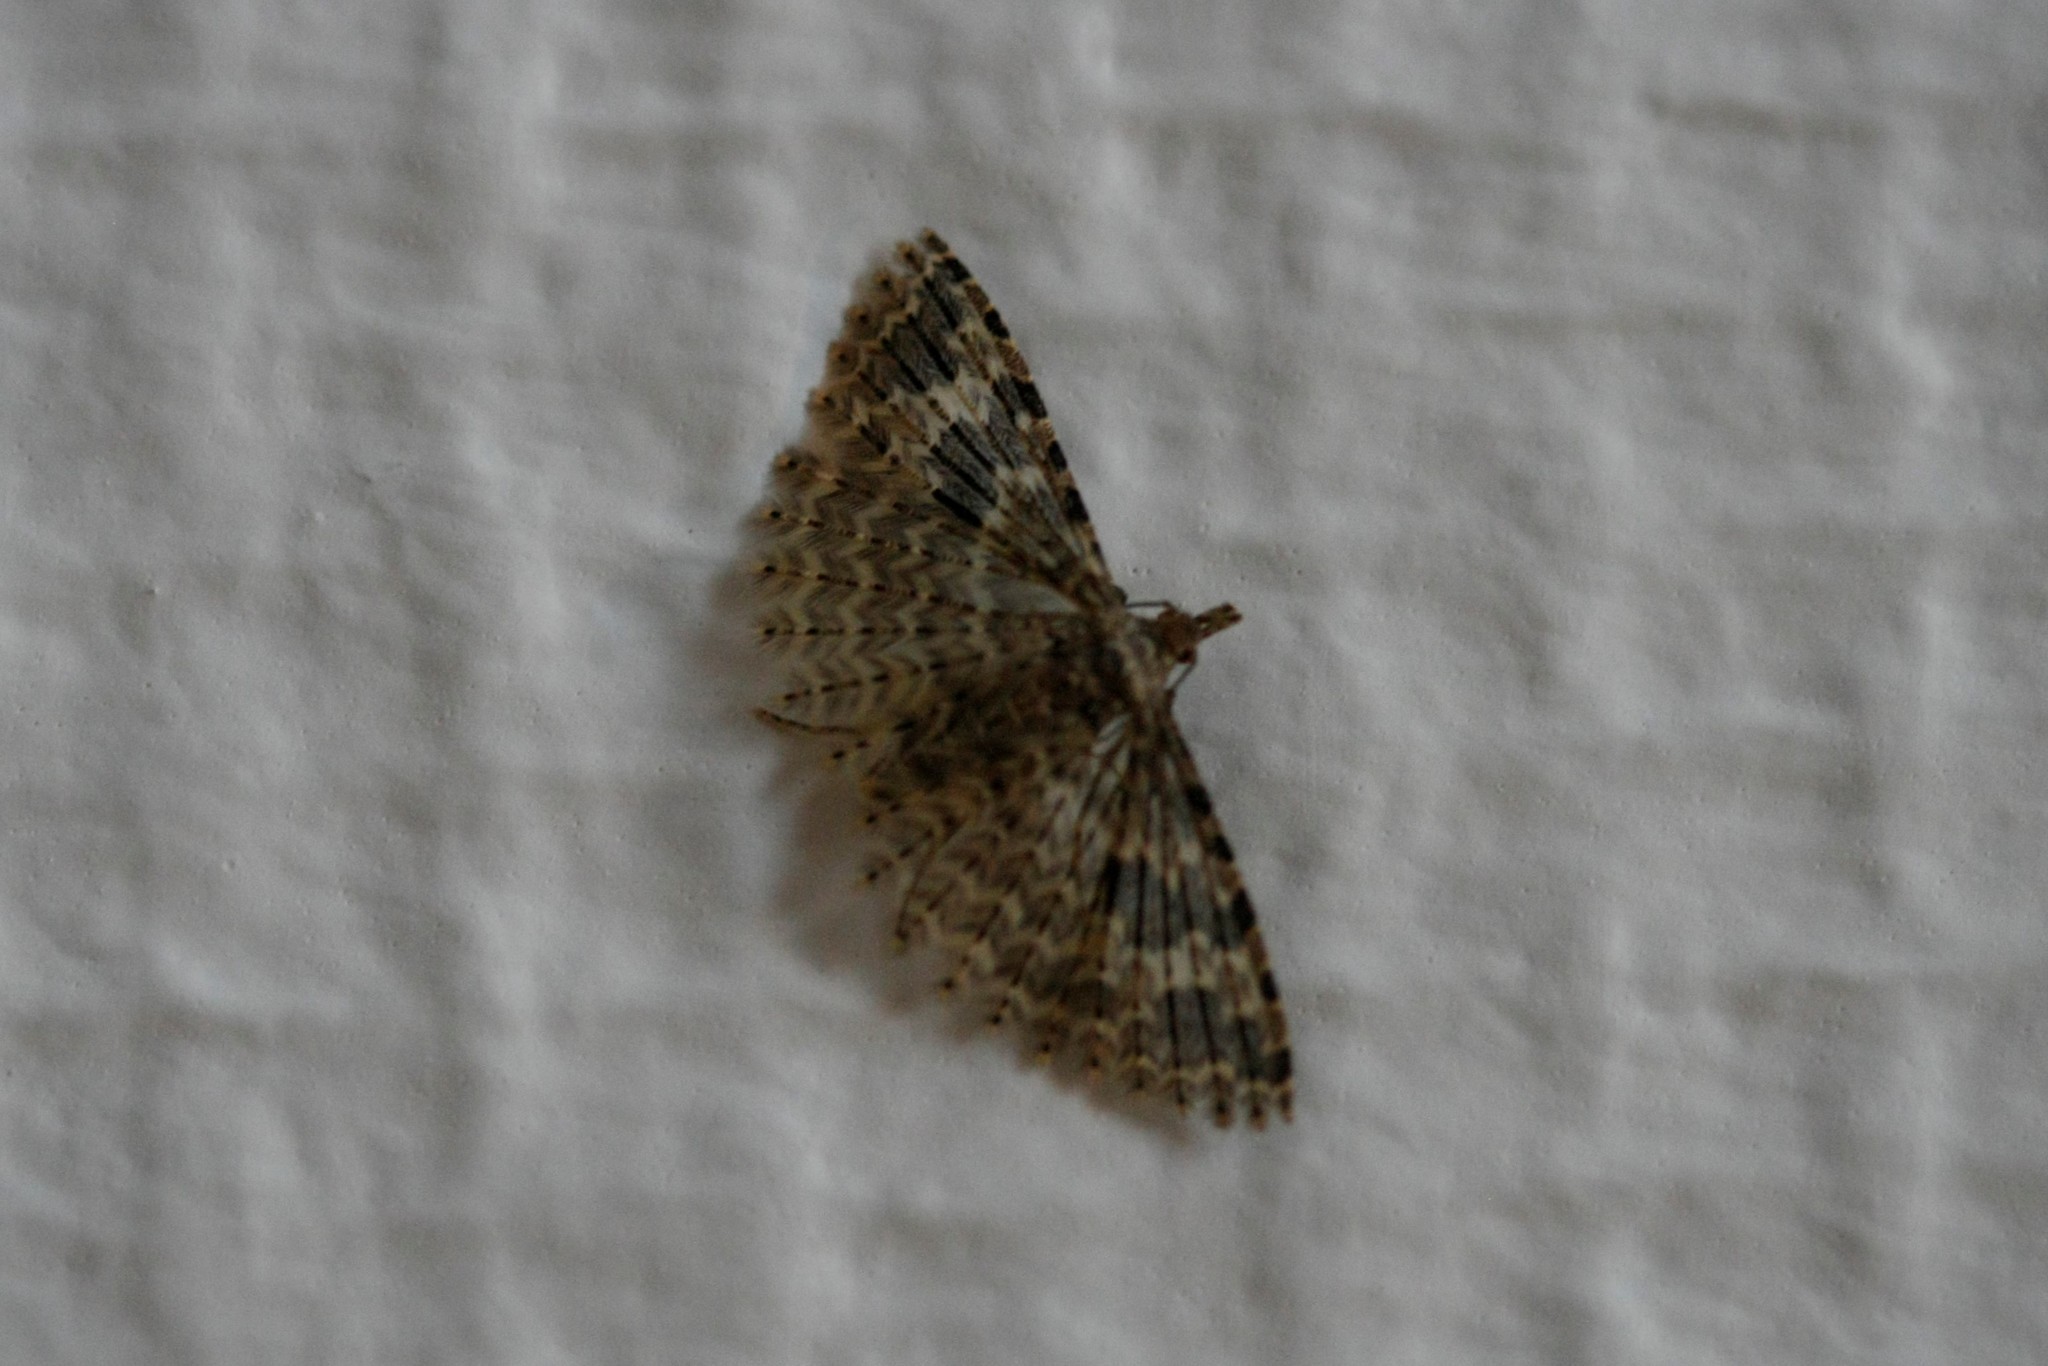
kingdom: Animalia
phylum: Arthropoda
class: Insecta
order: Lepidoptera
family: Alucitidae
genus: Alucita
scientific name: Alucita hexadactyla
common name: Twenty-plume moth
